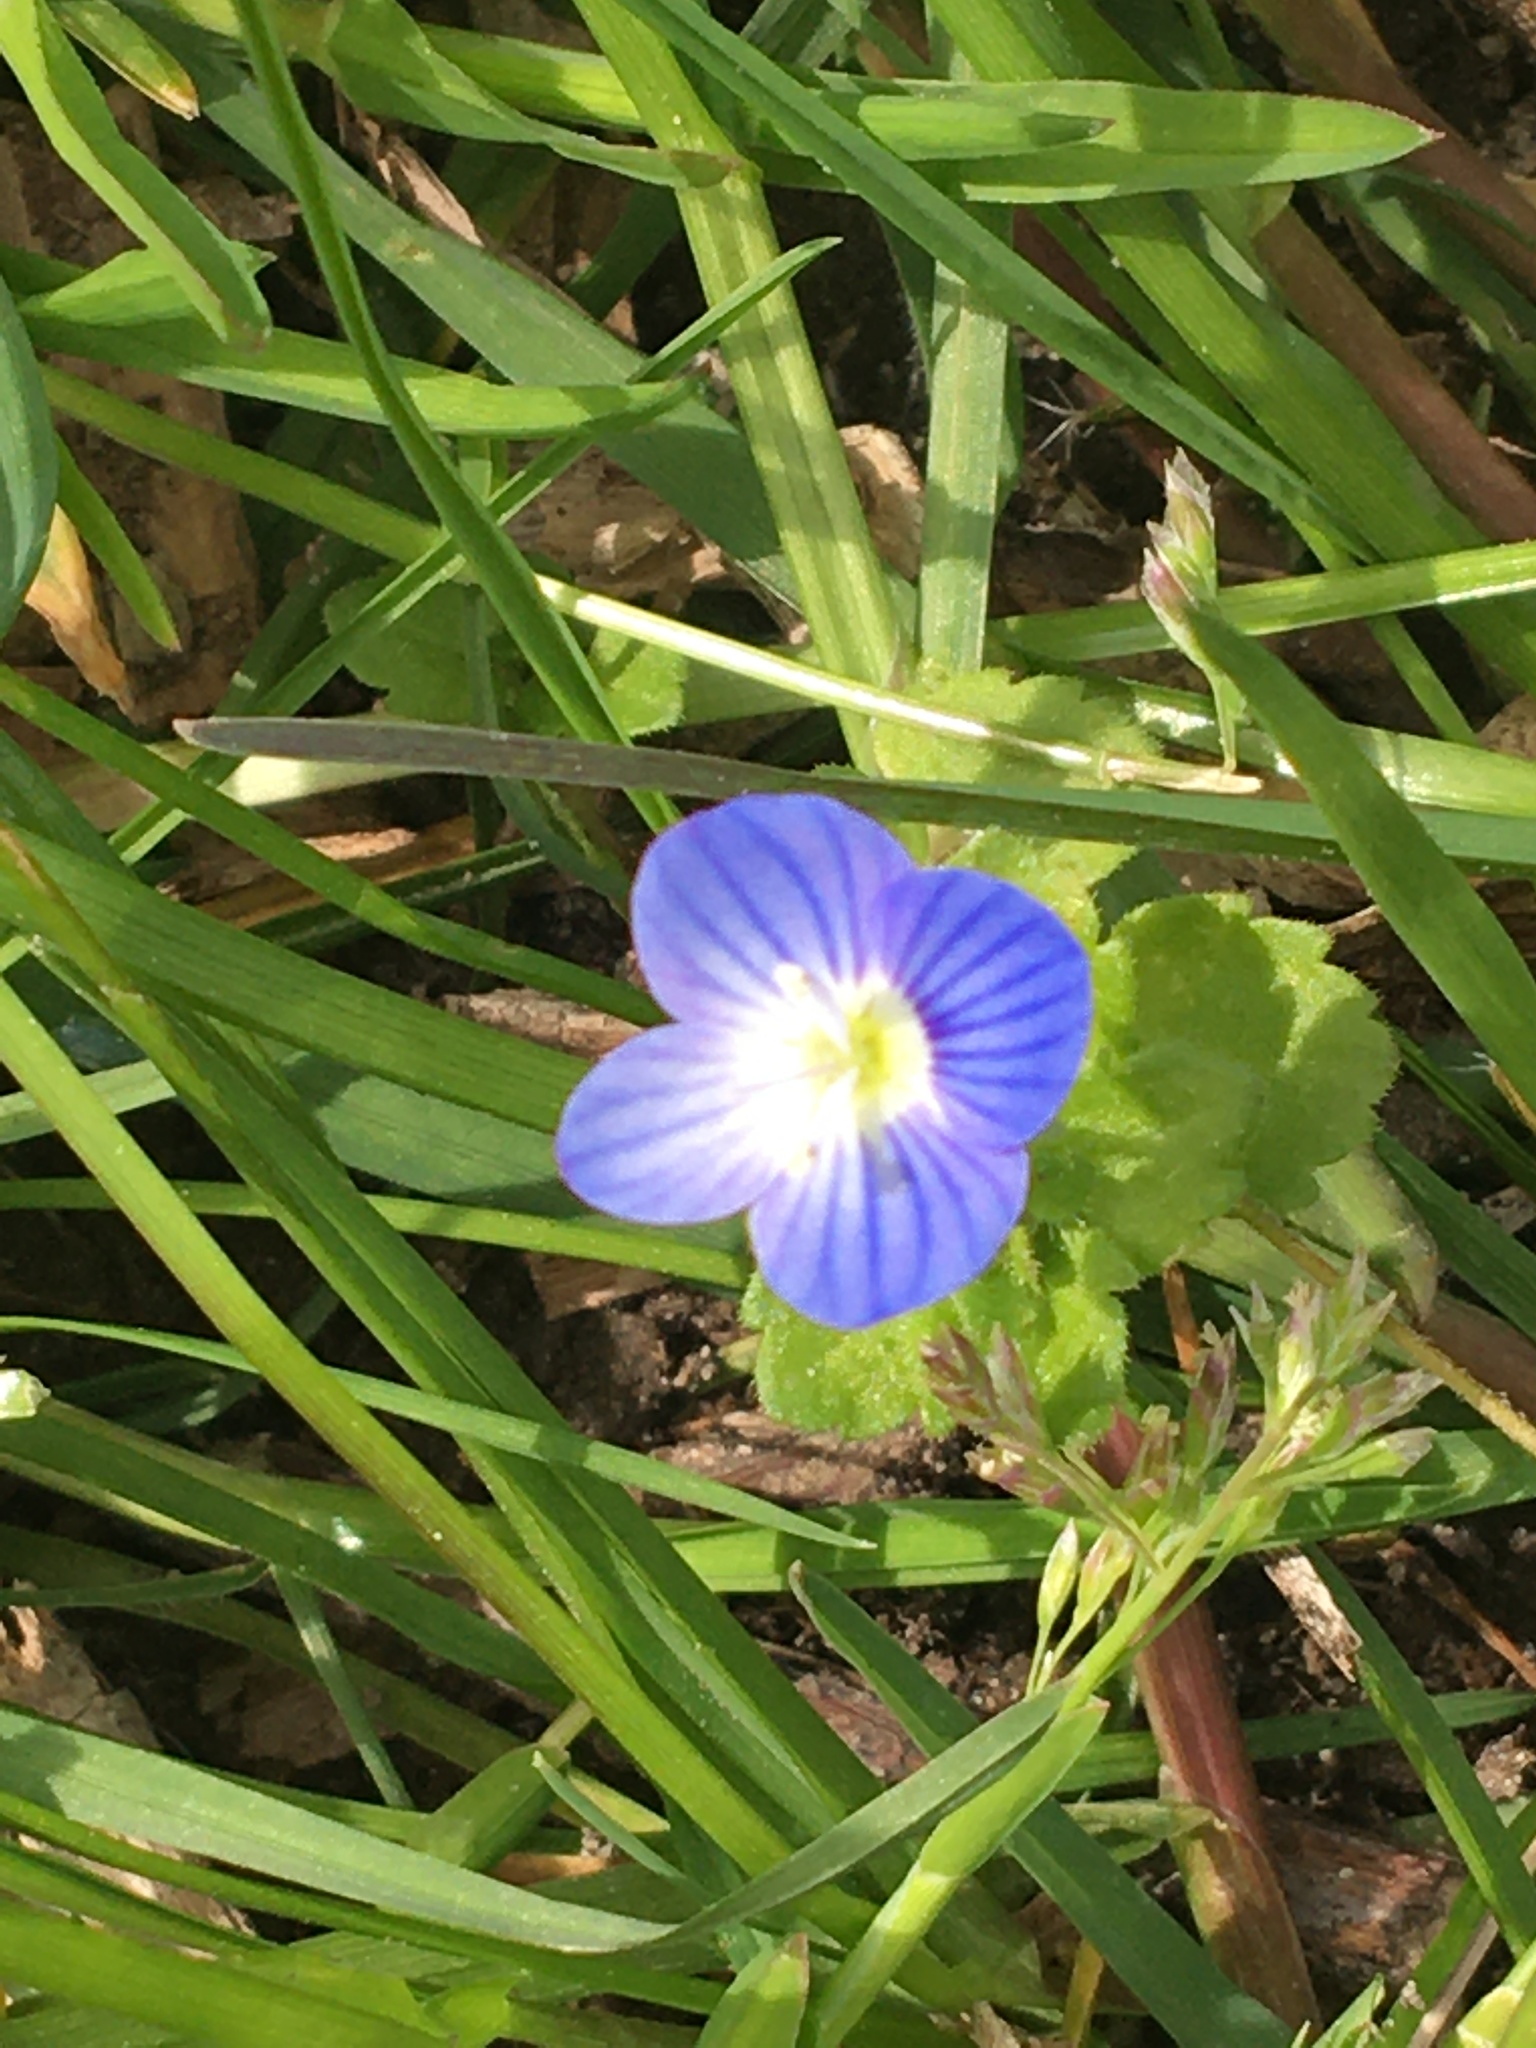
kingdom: Plantae
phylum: Tracheophyta
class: Magnoliopsida
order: Lamiales
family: Plantaginaceae
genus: Veronica
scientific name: Veronica persica
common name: Common field-speedwell
